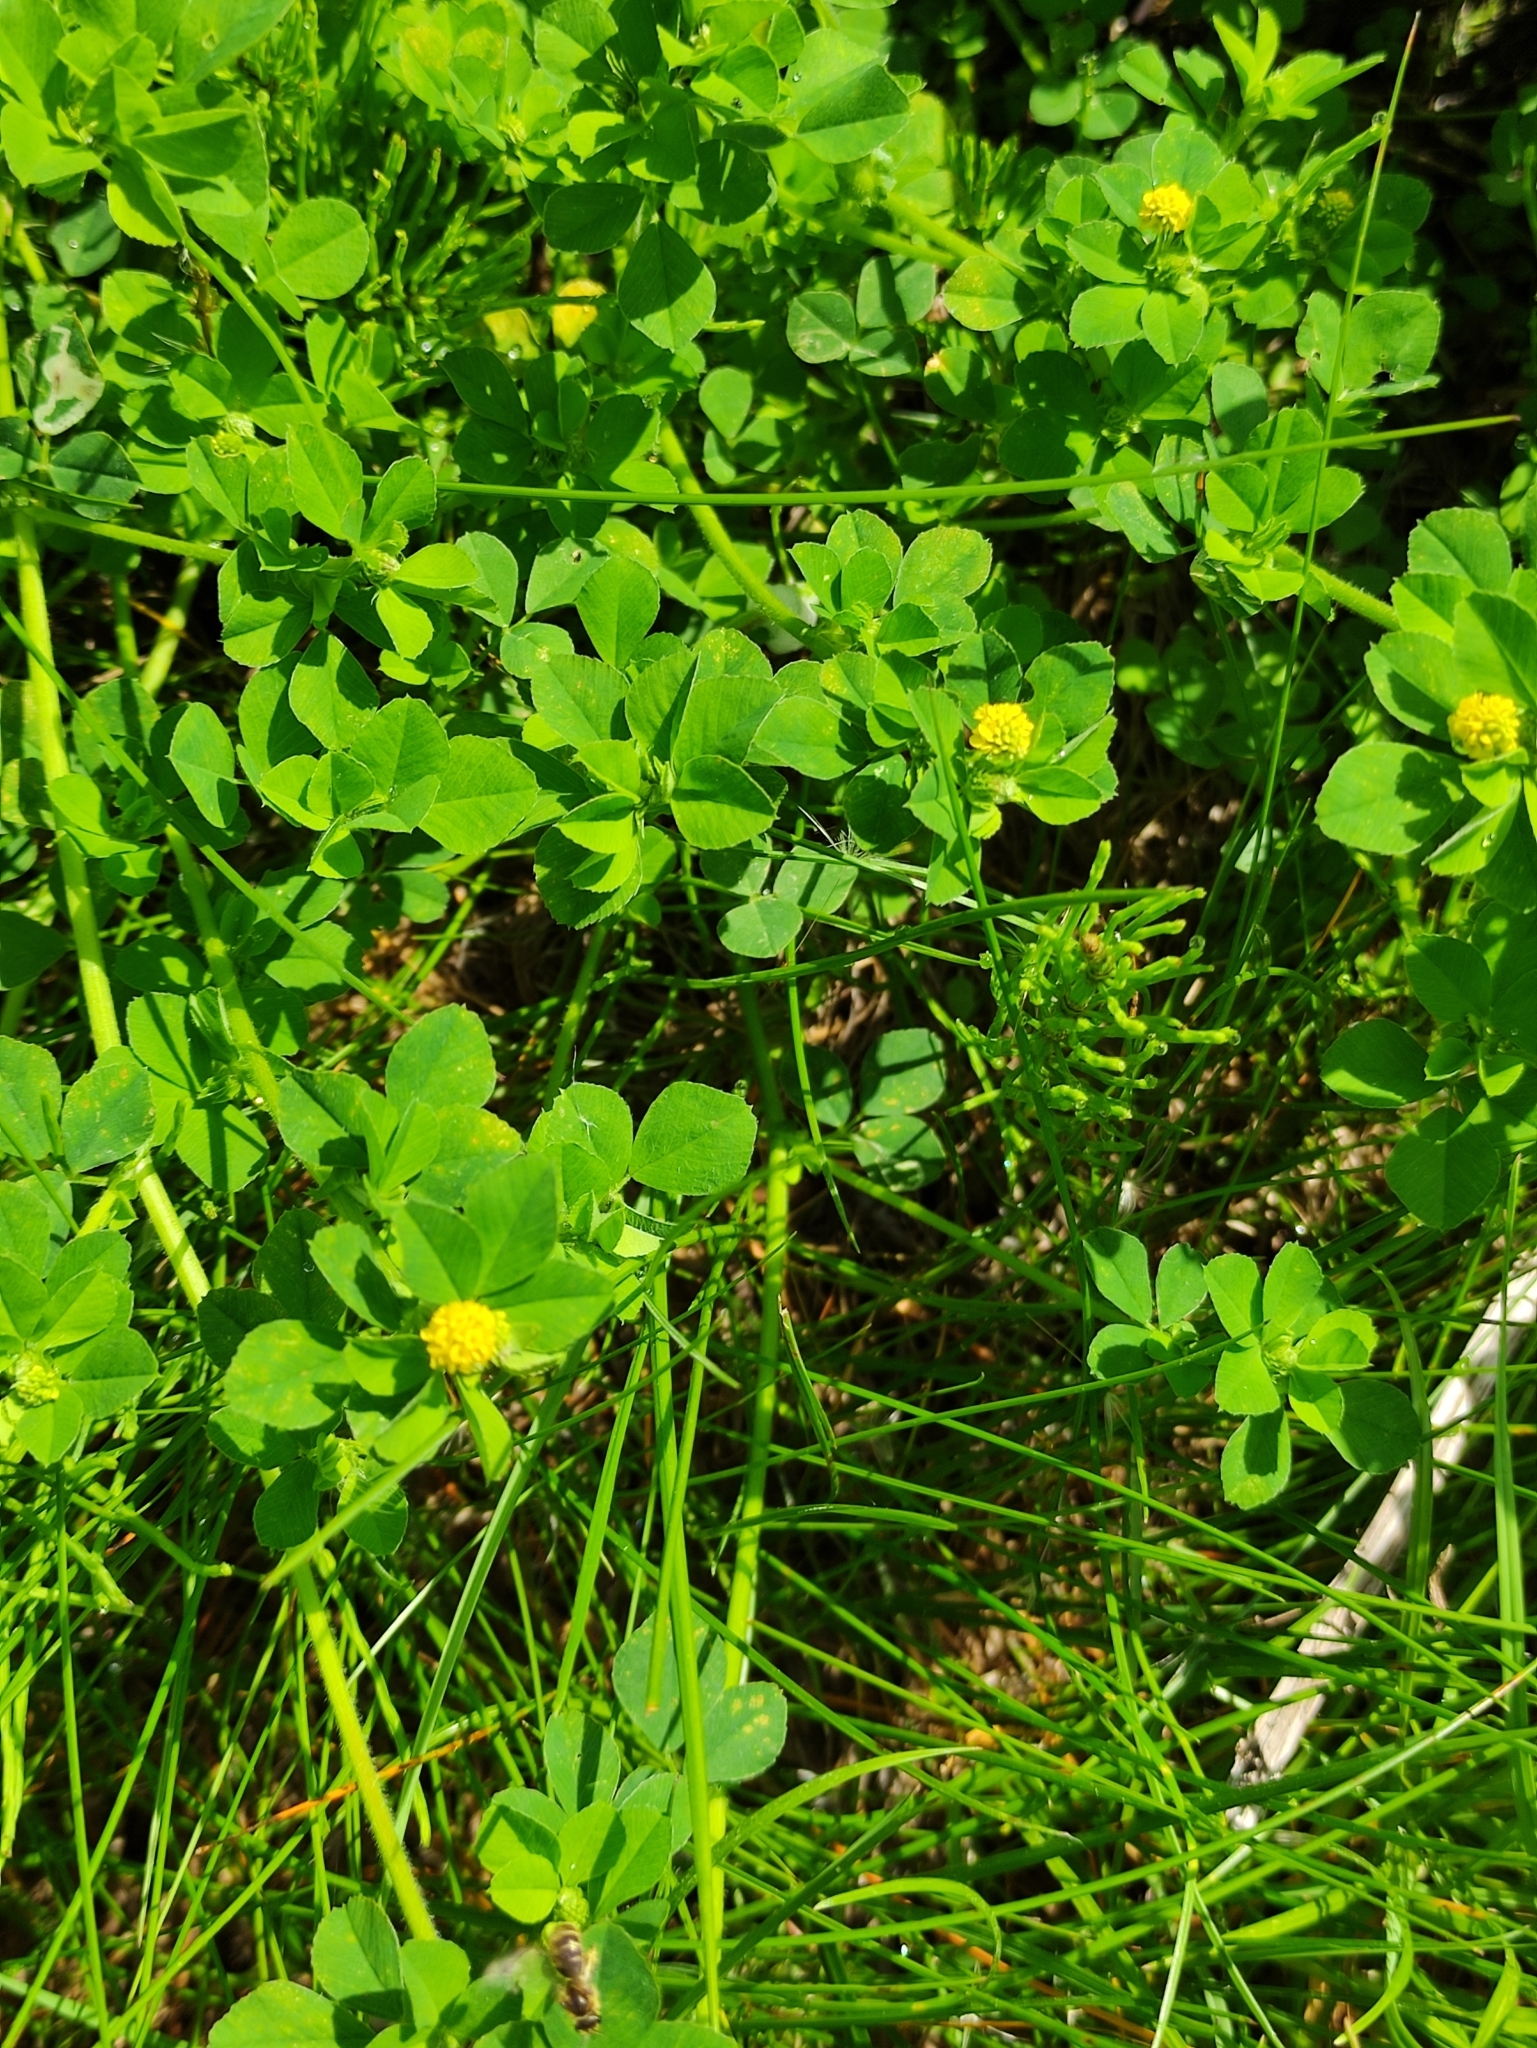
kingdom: Plantae
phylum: Tracheophyta
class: Magnoliopsida
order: Fabales
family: Fabaceae
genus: Medicago
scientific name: Medicago lupulina
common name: Black medick
